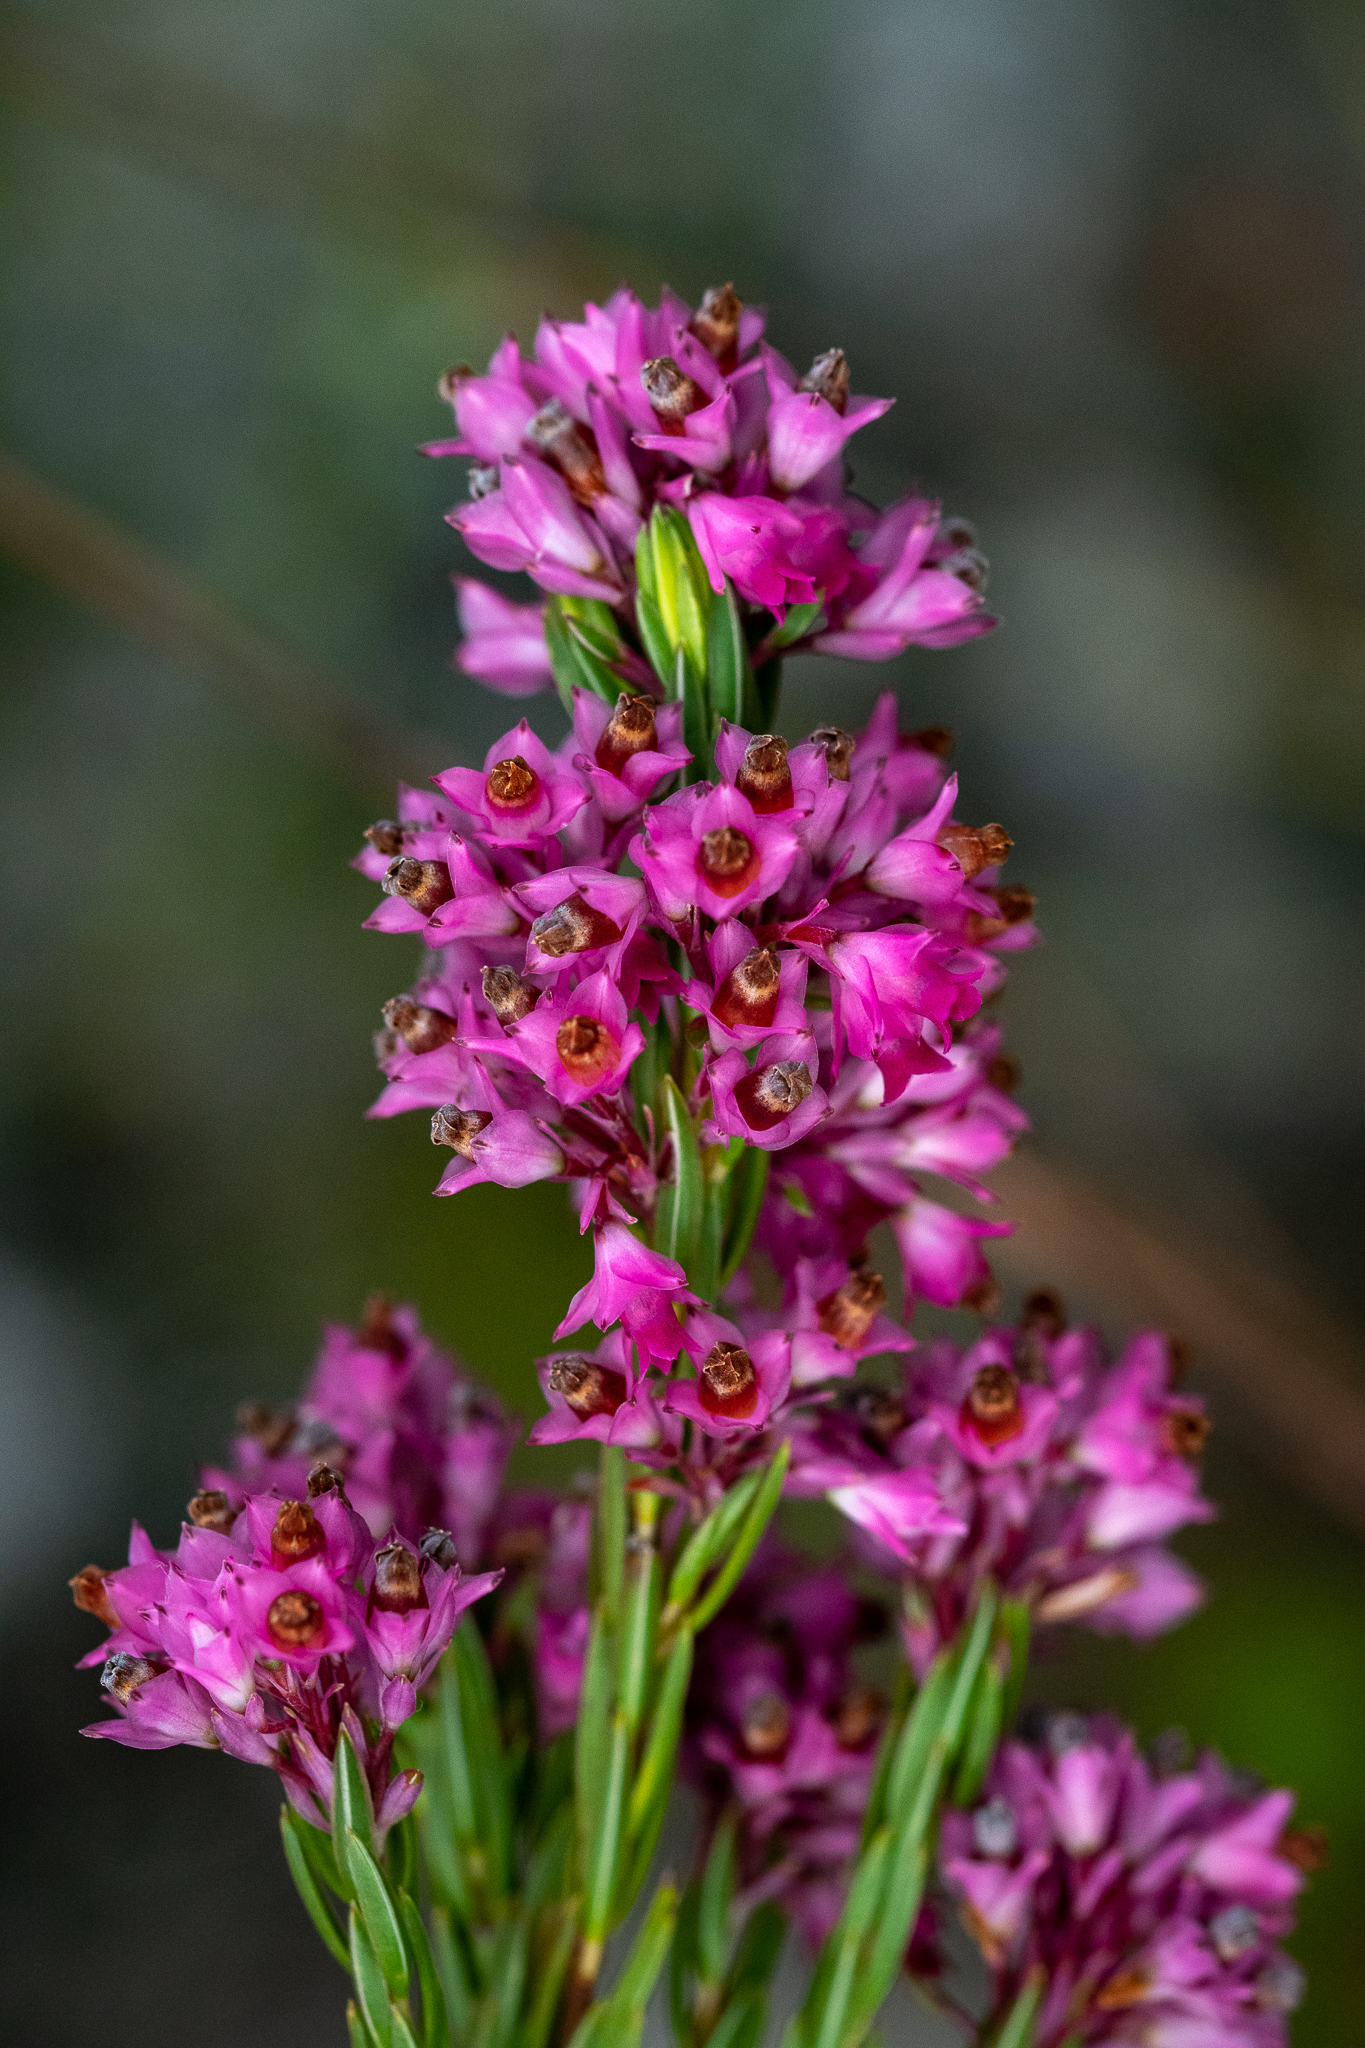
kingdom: Plantae
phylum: Tracheophyta
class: Magnoliopsida
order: Ericales
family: Ericaceae
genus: Erica
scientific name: Erica corifolia
